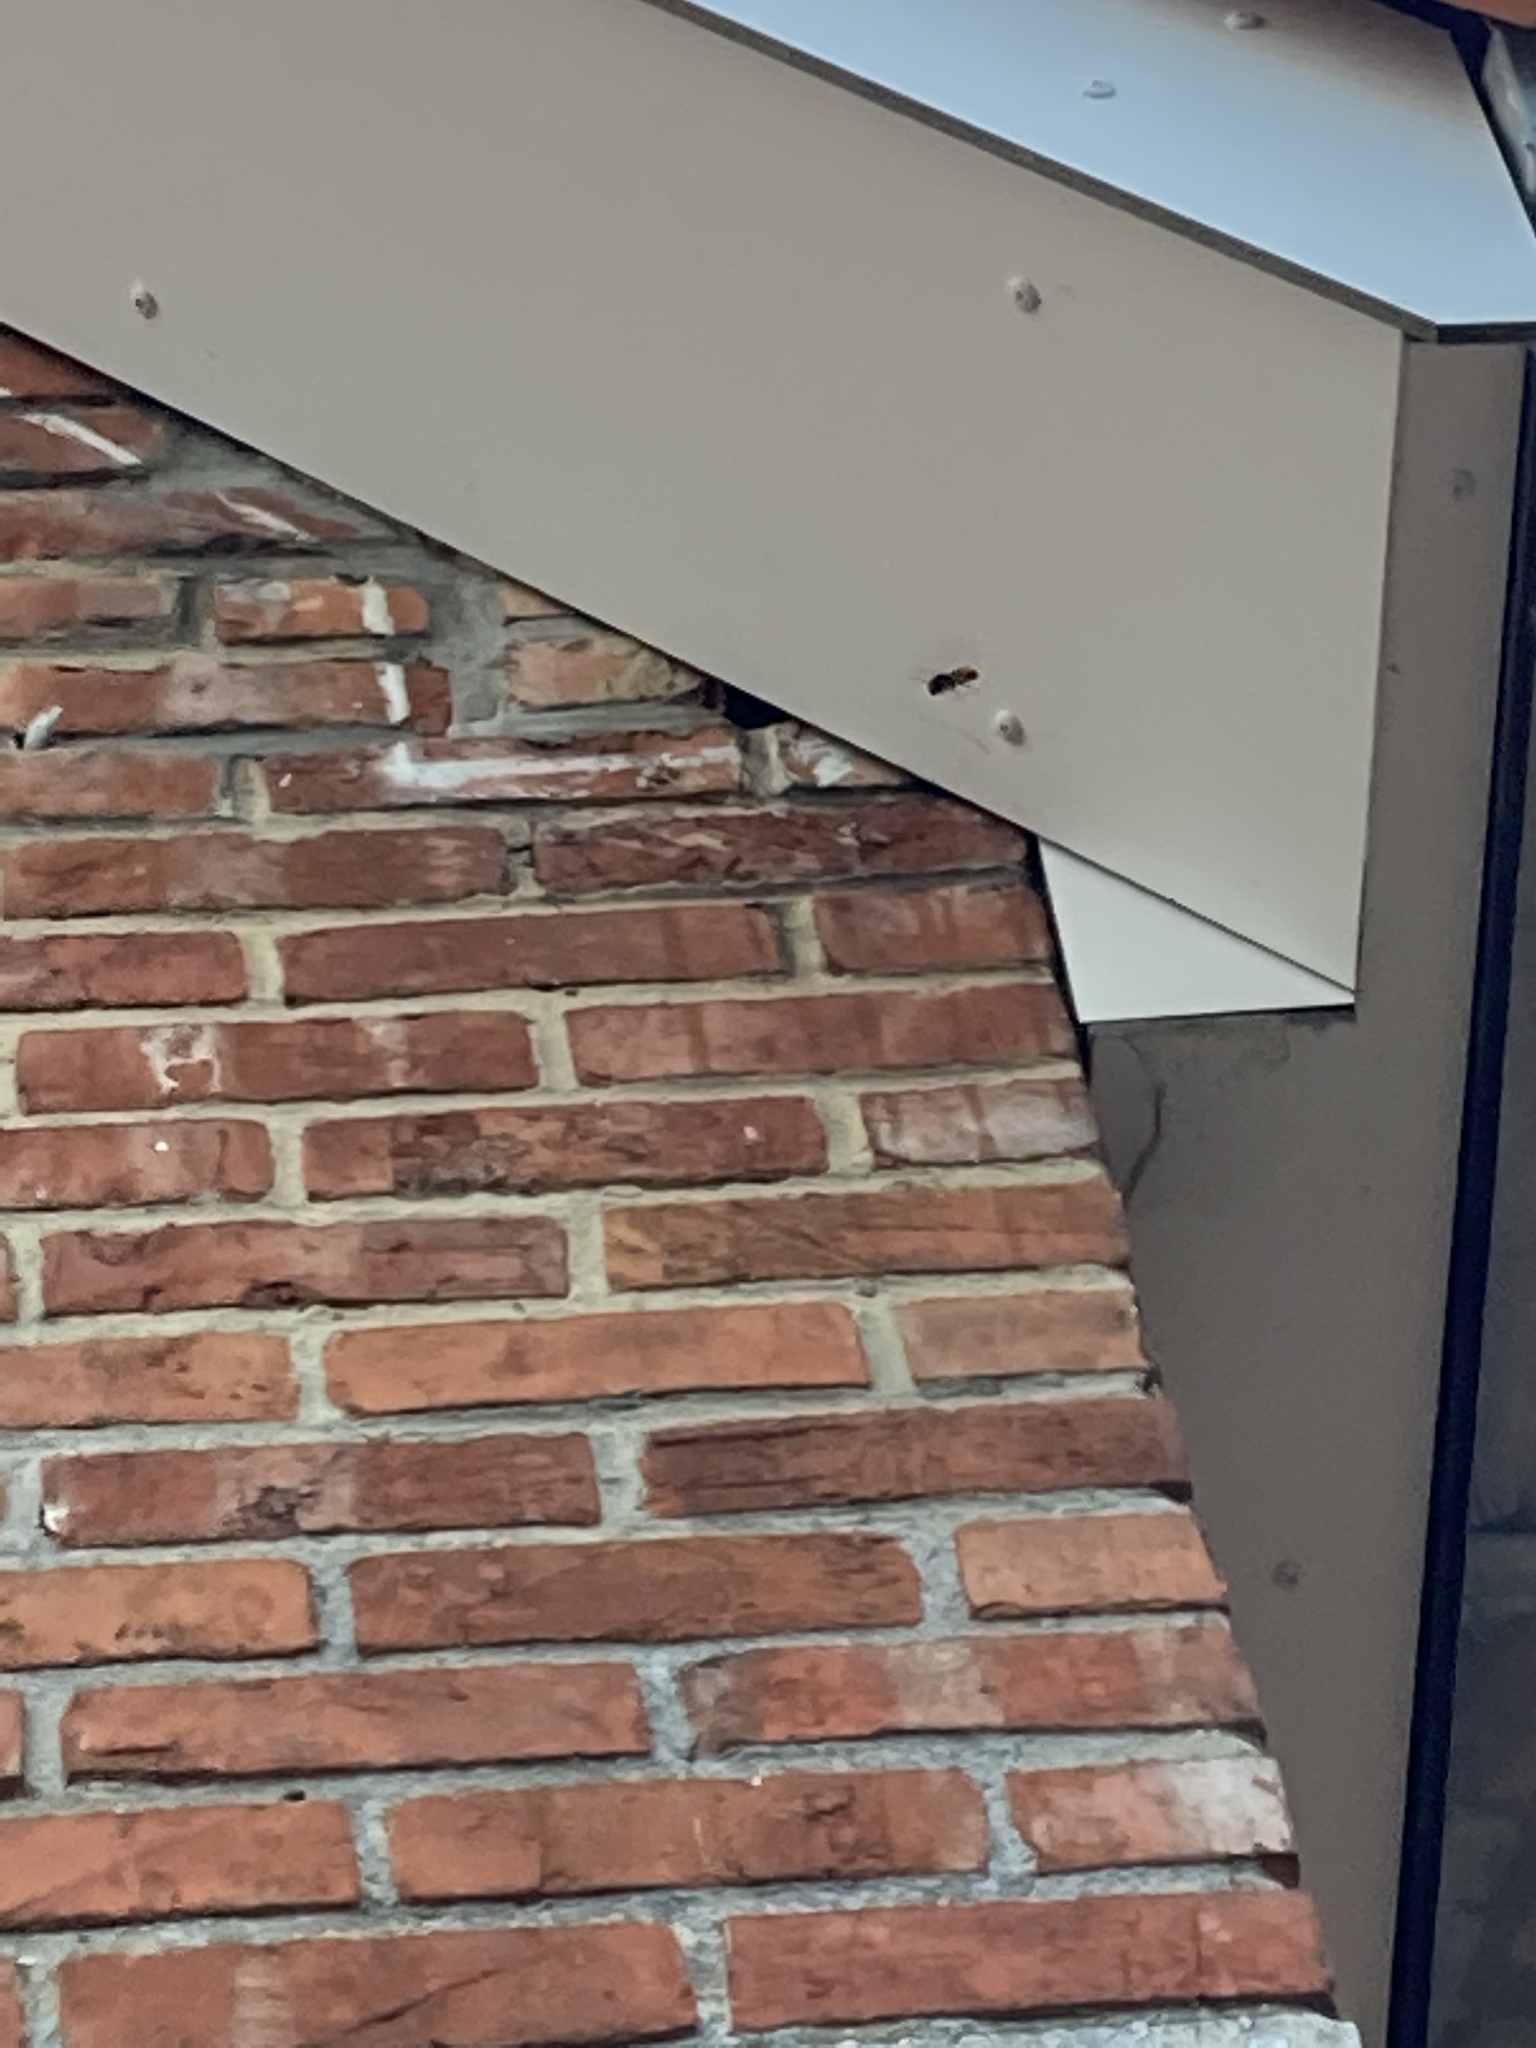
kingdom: Animalia
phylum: Arthropoda
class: Insecta
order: Hymenoptera
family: Vespidae
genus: Vespa
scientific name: Vespa velutina
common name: Asian hornet
